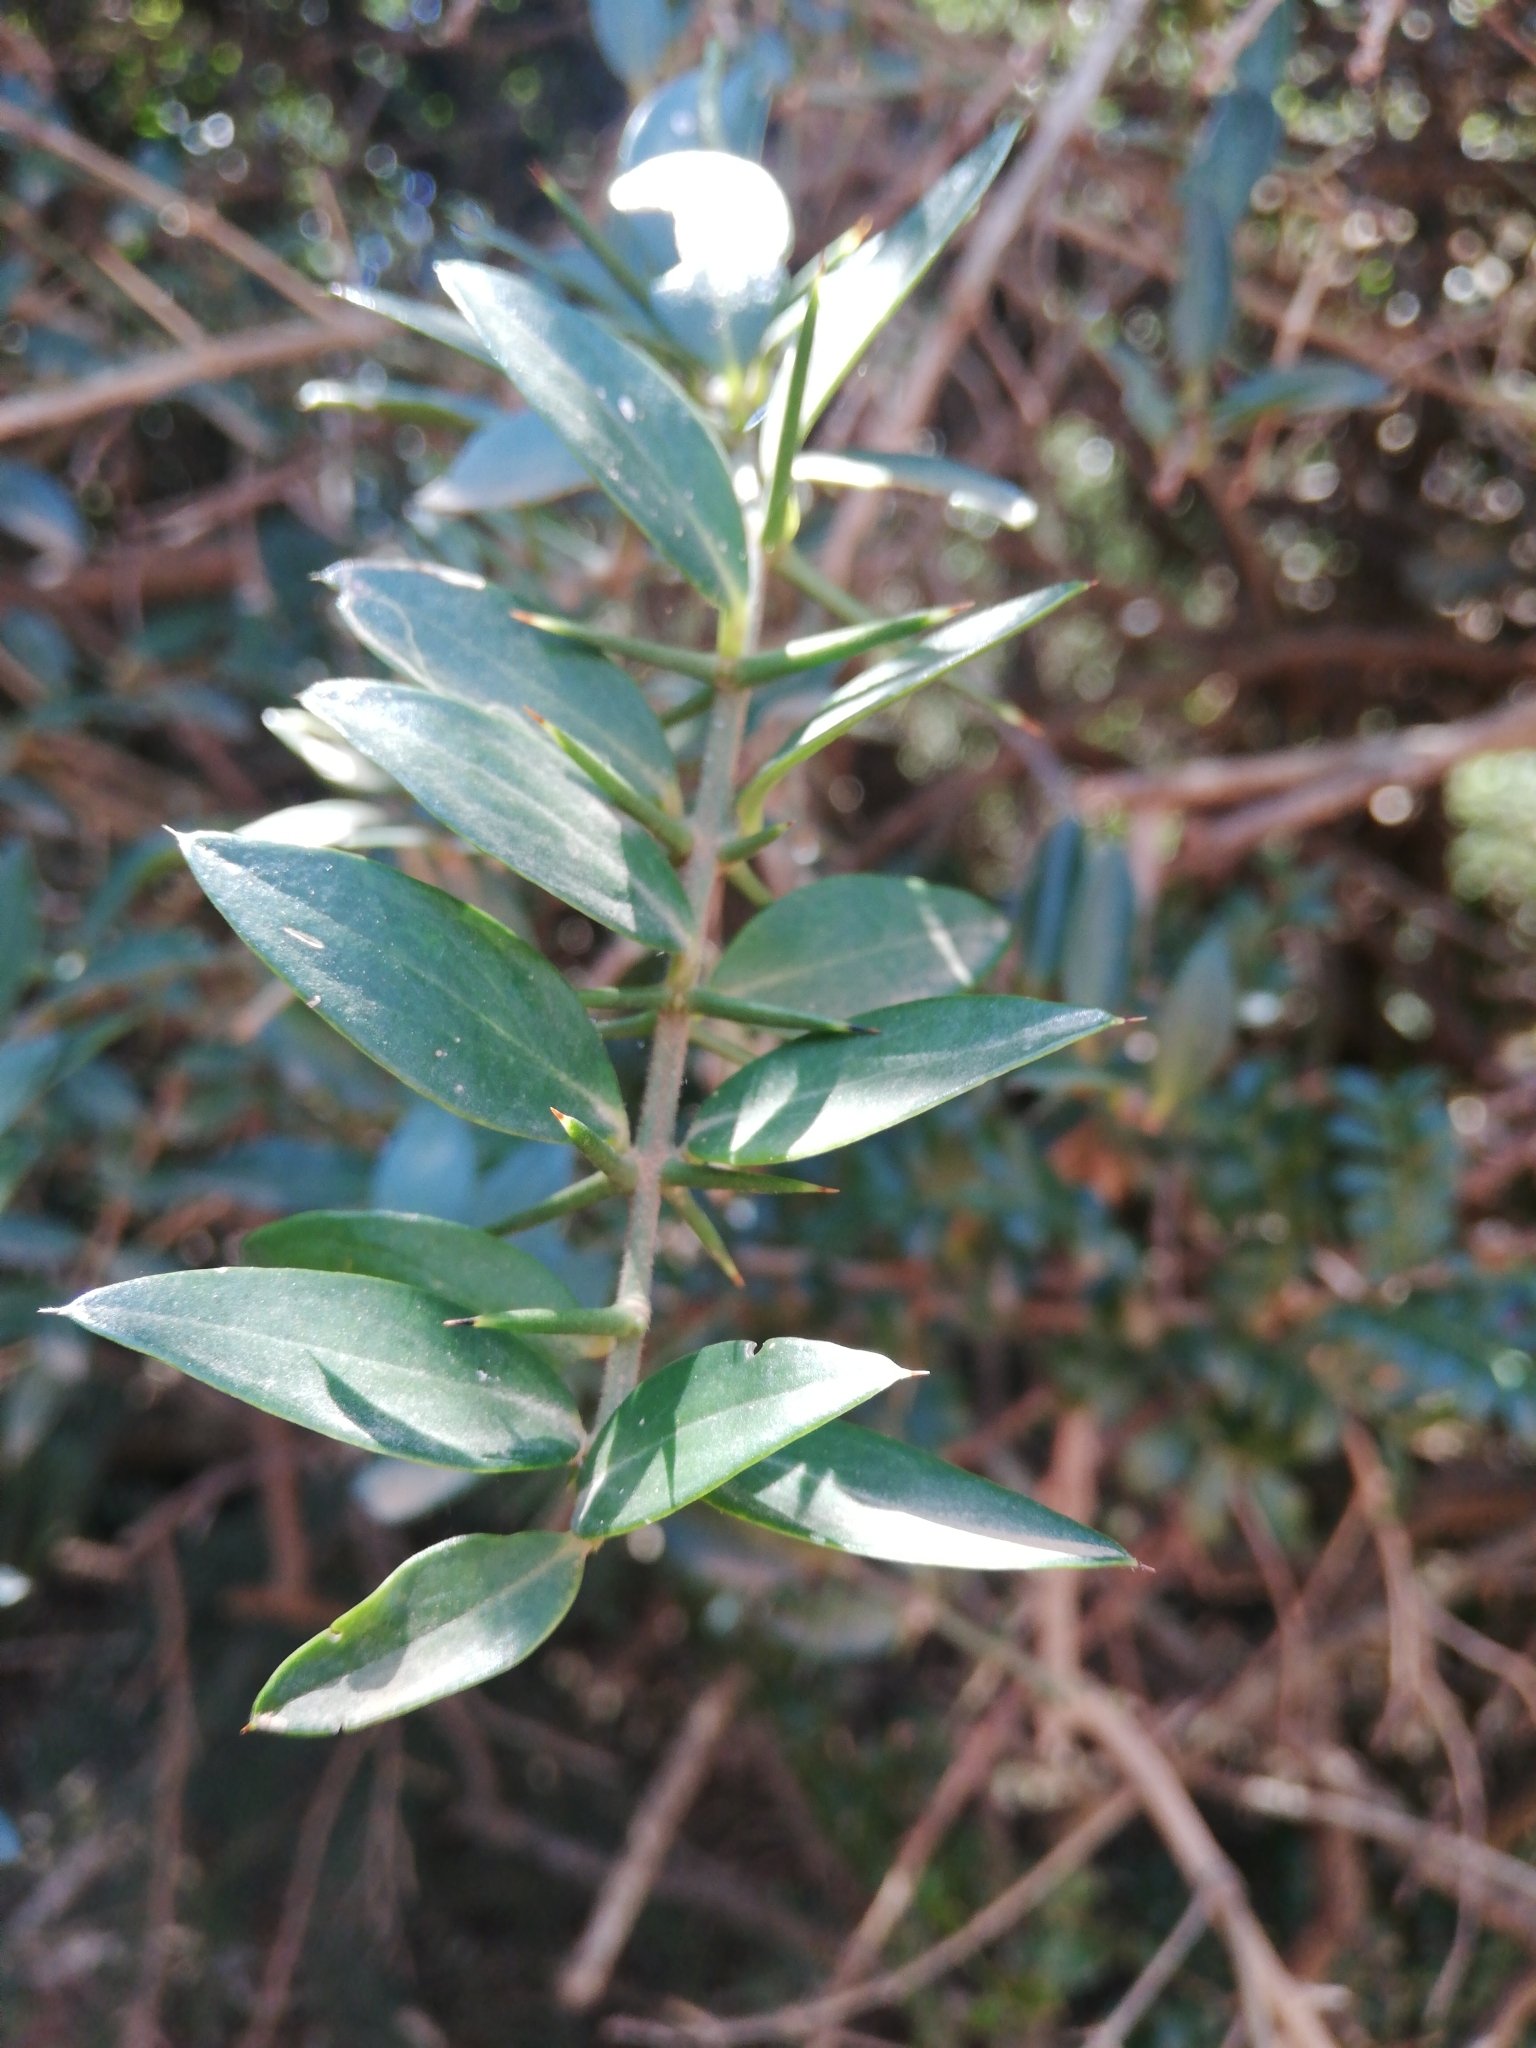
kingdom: Plantae
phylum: Tracheophyta
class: Magnoliopsida
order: Brassicales
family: Salvadoraceae
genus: Azima
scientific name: Azima tetracantha
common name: Needle bush
